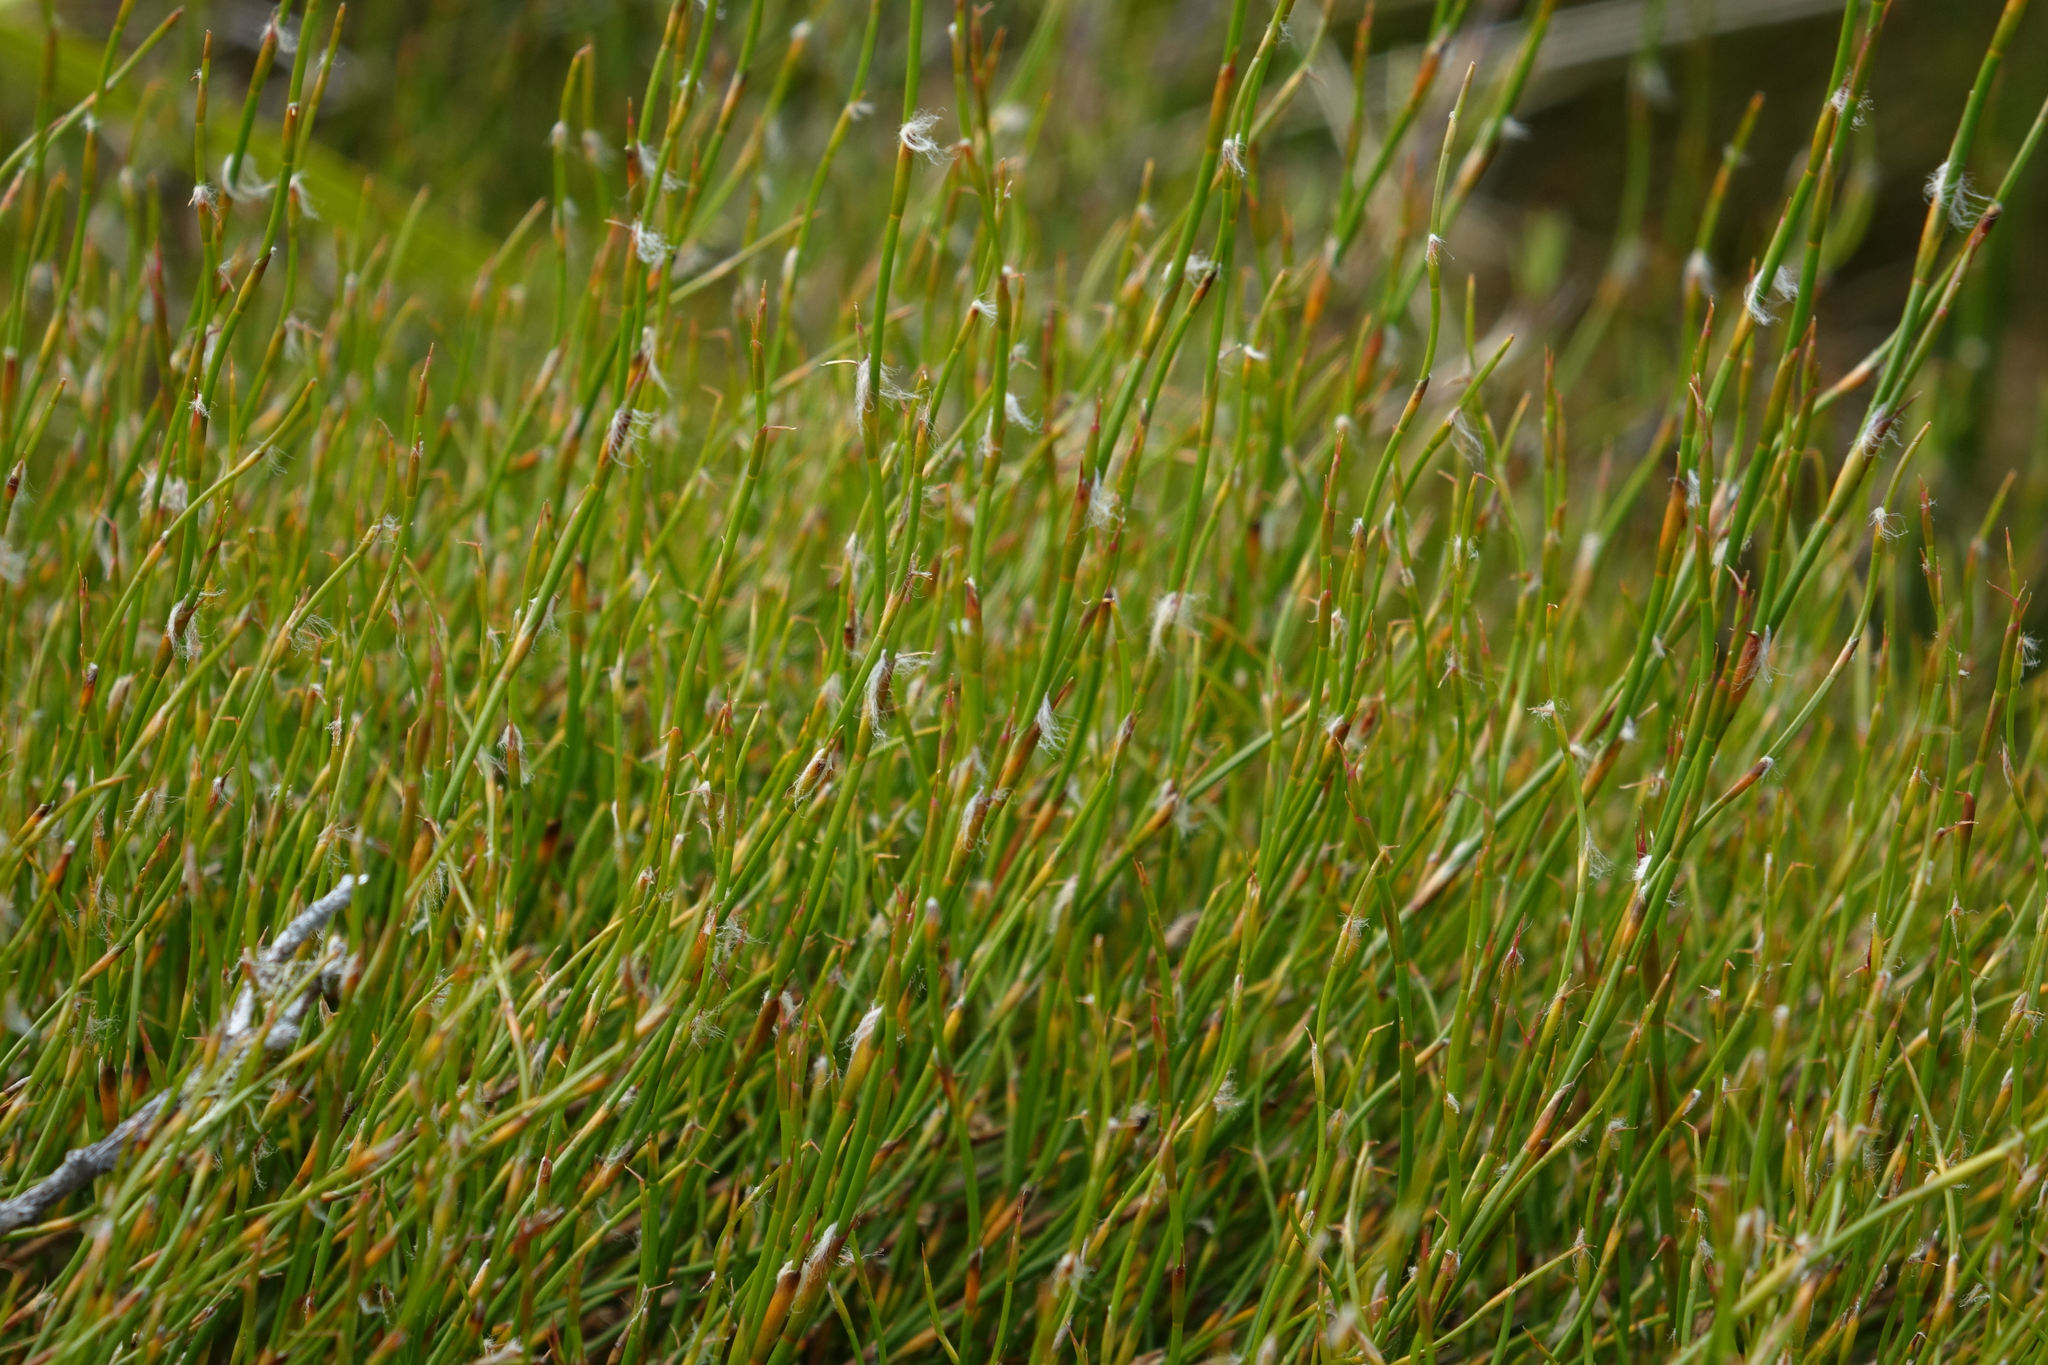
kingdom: Plantae
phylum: Tracheophyta
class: Liliopsida
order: Poales
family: Restionaceae
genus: Empodisma
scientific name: Empodisma minus
